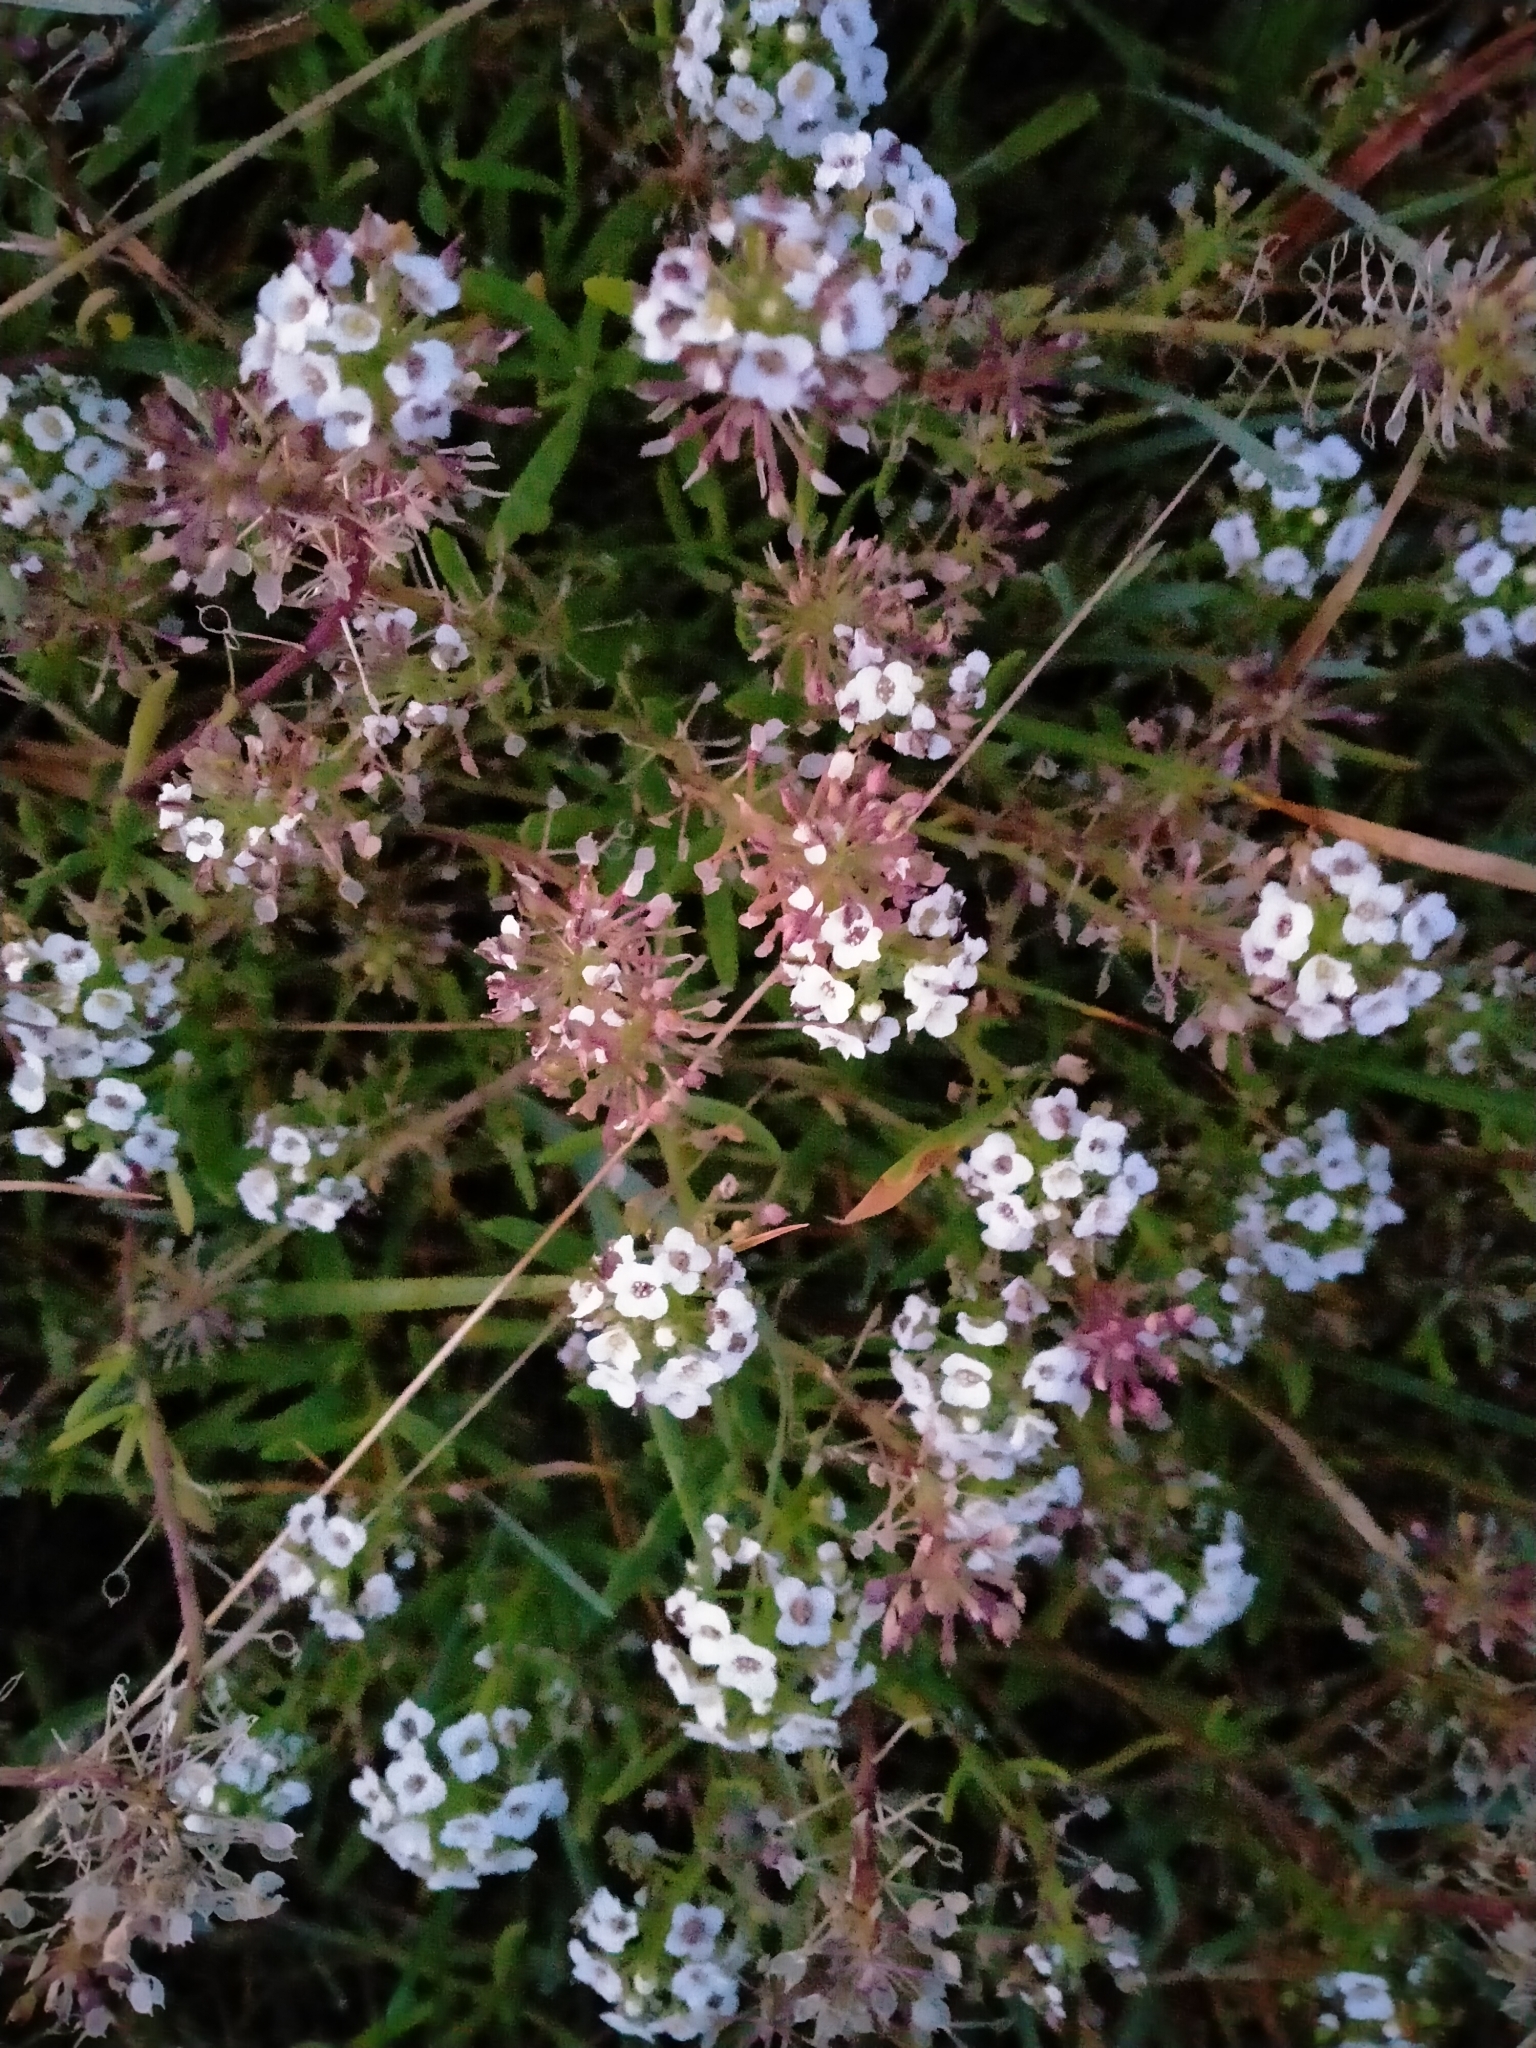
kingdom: Plantae
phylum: Tracheophyta
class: Magnoliopsida
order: Brassicales
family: Brassicaceae
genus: Lobularia
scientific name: Lobularia maritima
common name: Sweet alison
